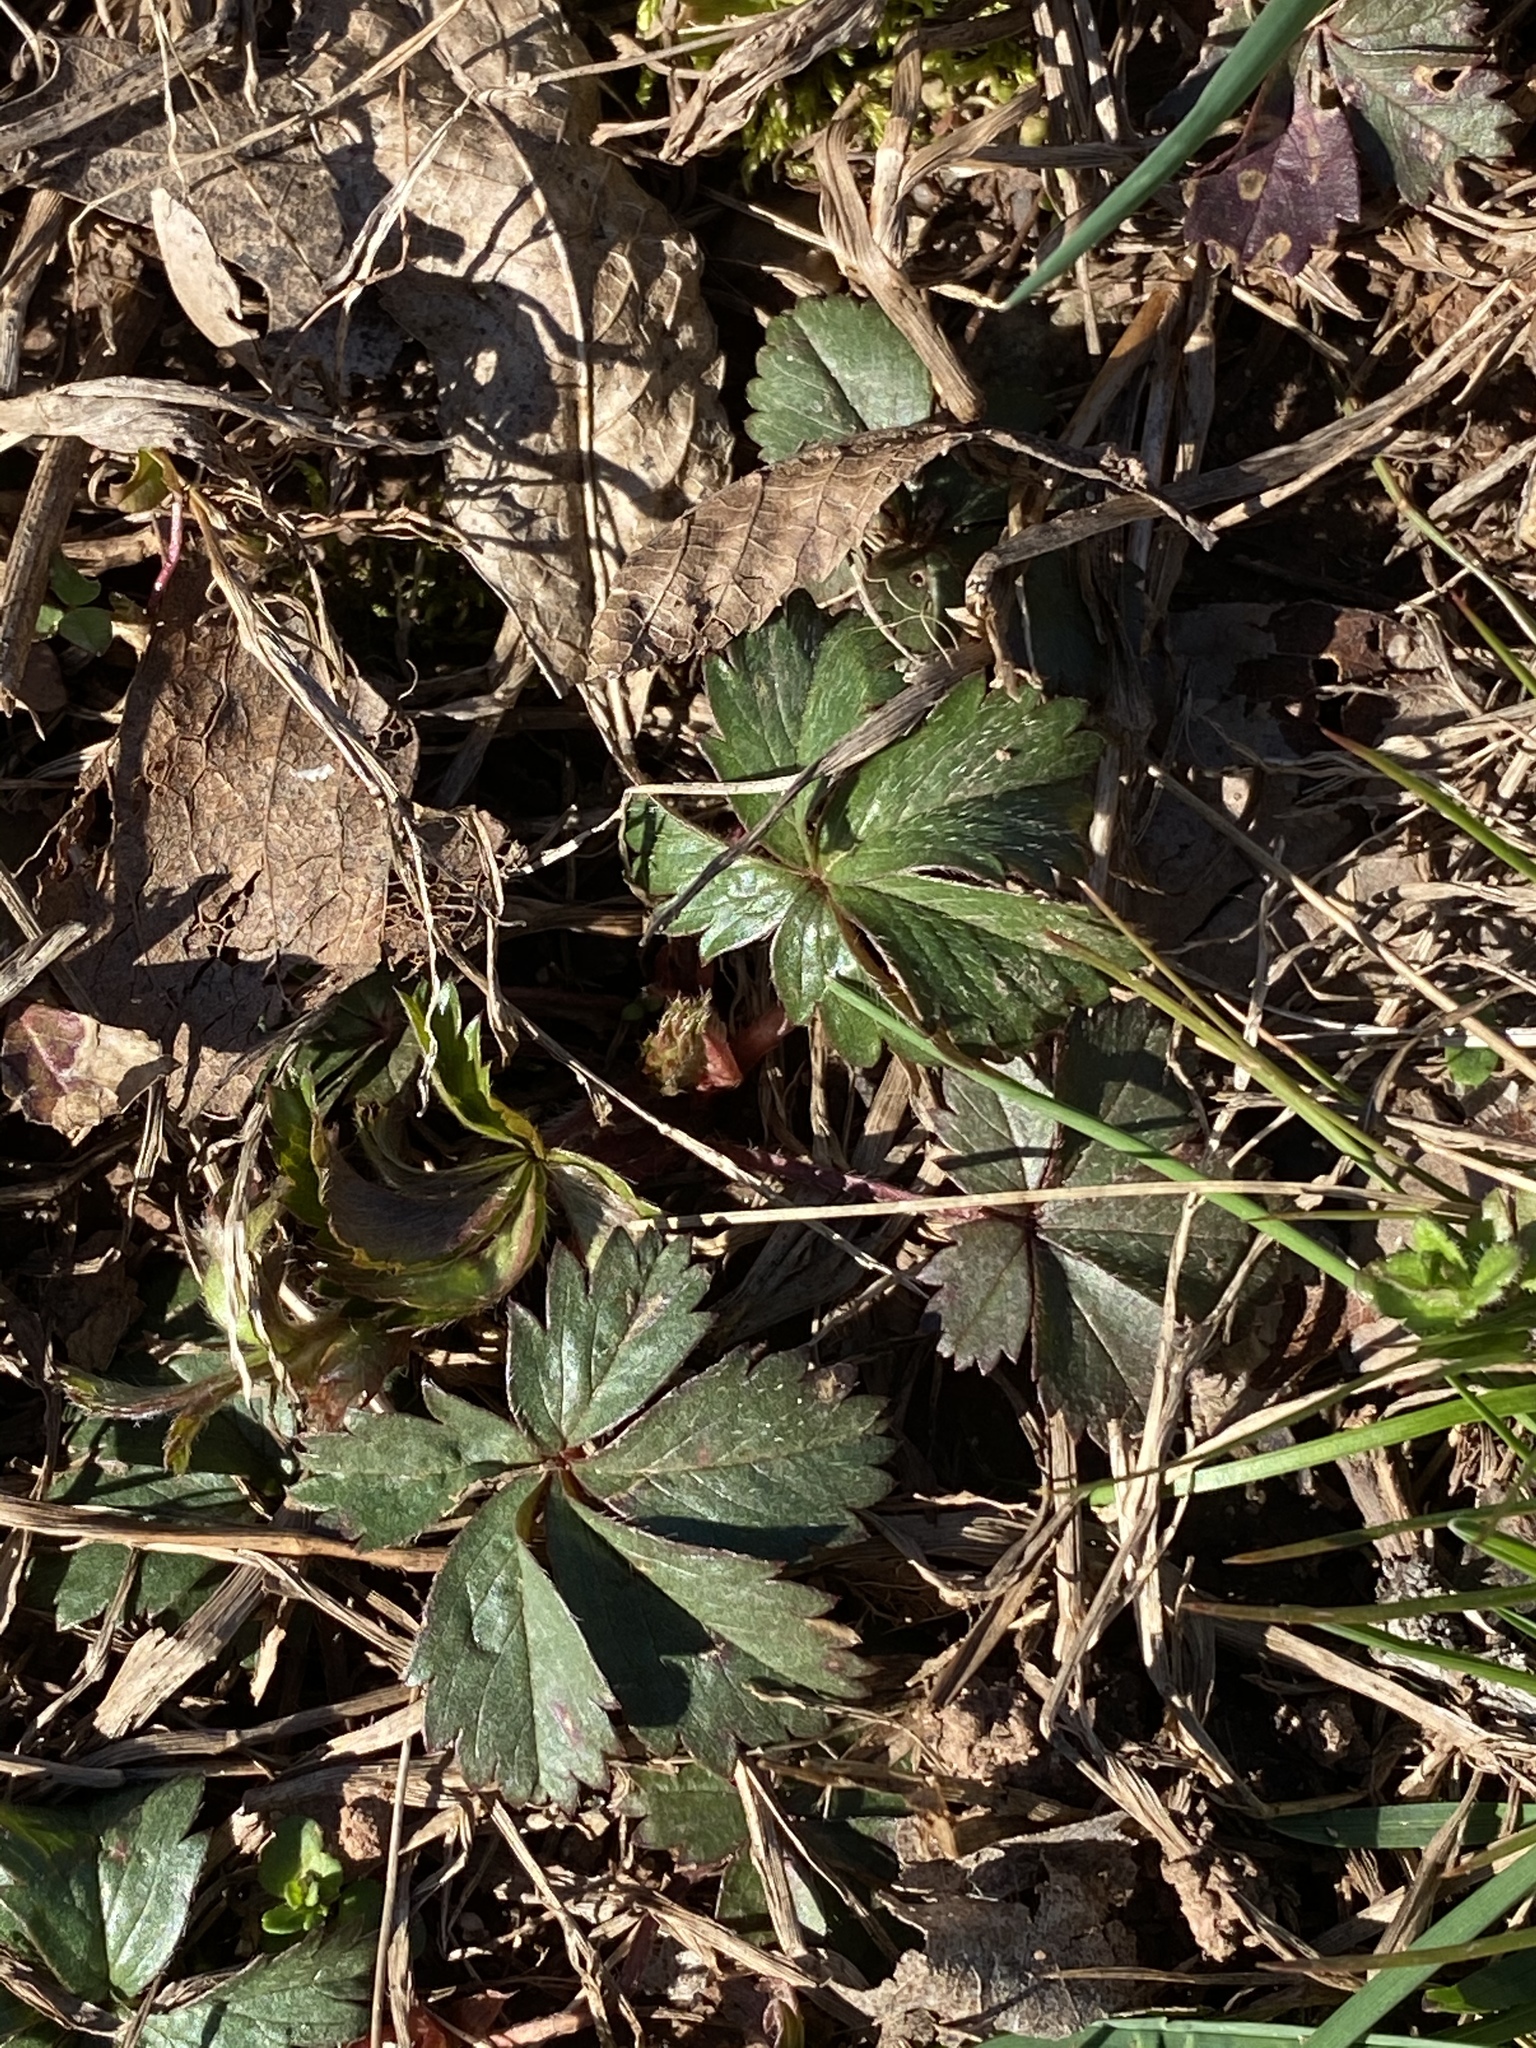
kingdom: Plantae
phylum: Tracheophyta
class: Magnoliopsida
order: Rosales
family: Rosaceae
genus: Potentilla
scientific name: Potentilla canadensis
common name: Canada cinquefoil
